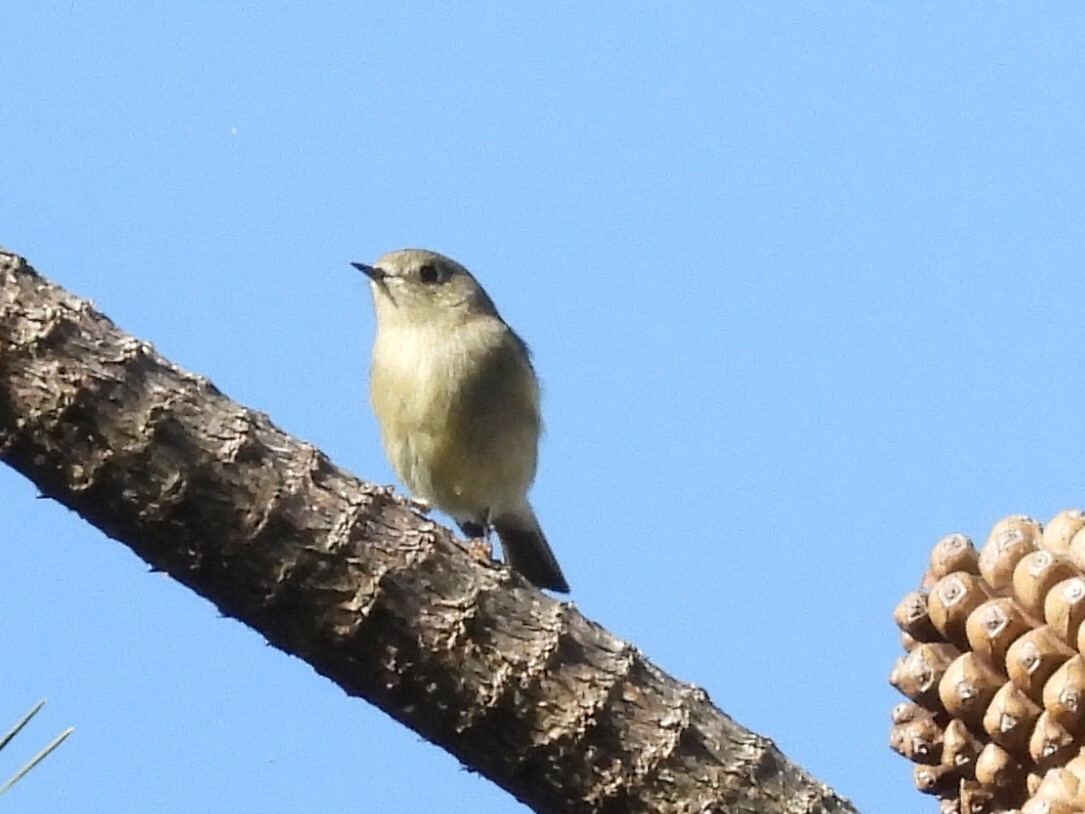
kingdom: Animalia
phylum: Chordata
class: Aves
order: Passeriformes
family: Regulidae
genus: Regulus
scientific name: Regulus calendula
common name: Ruby-crowned kinglet
